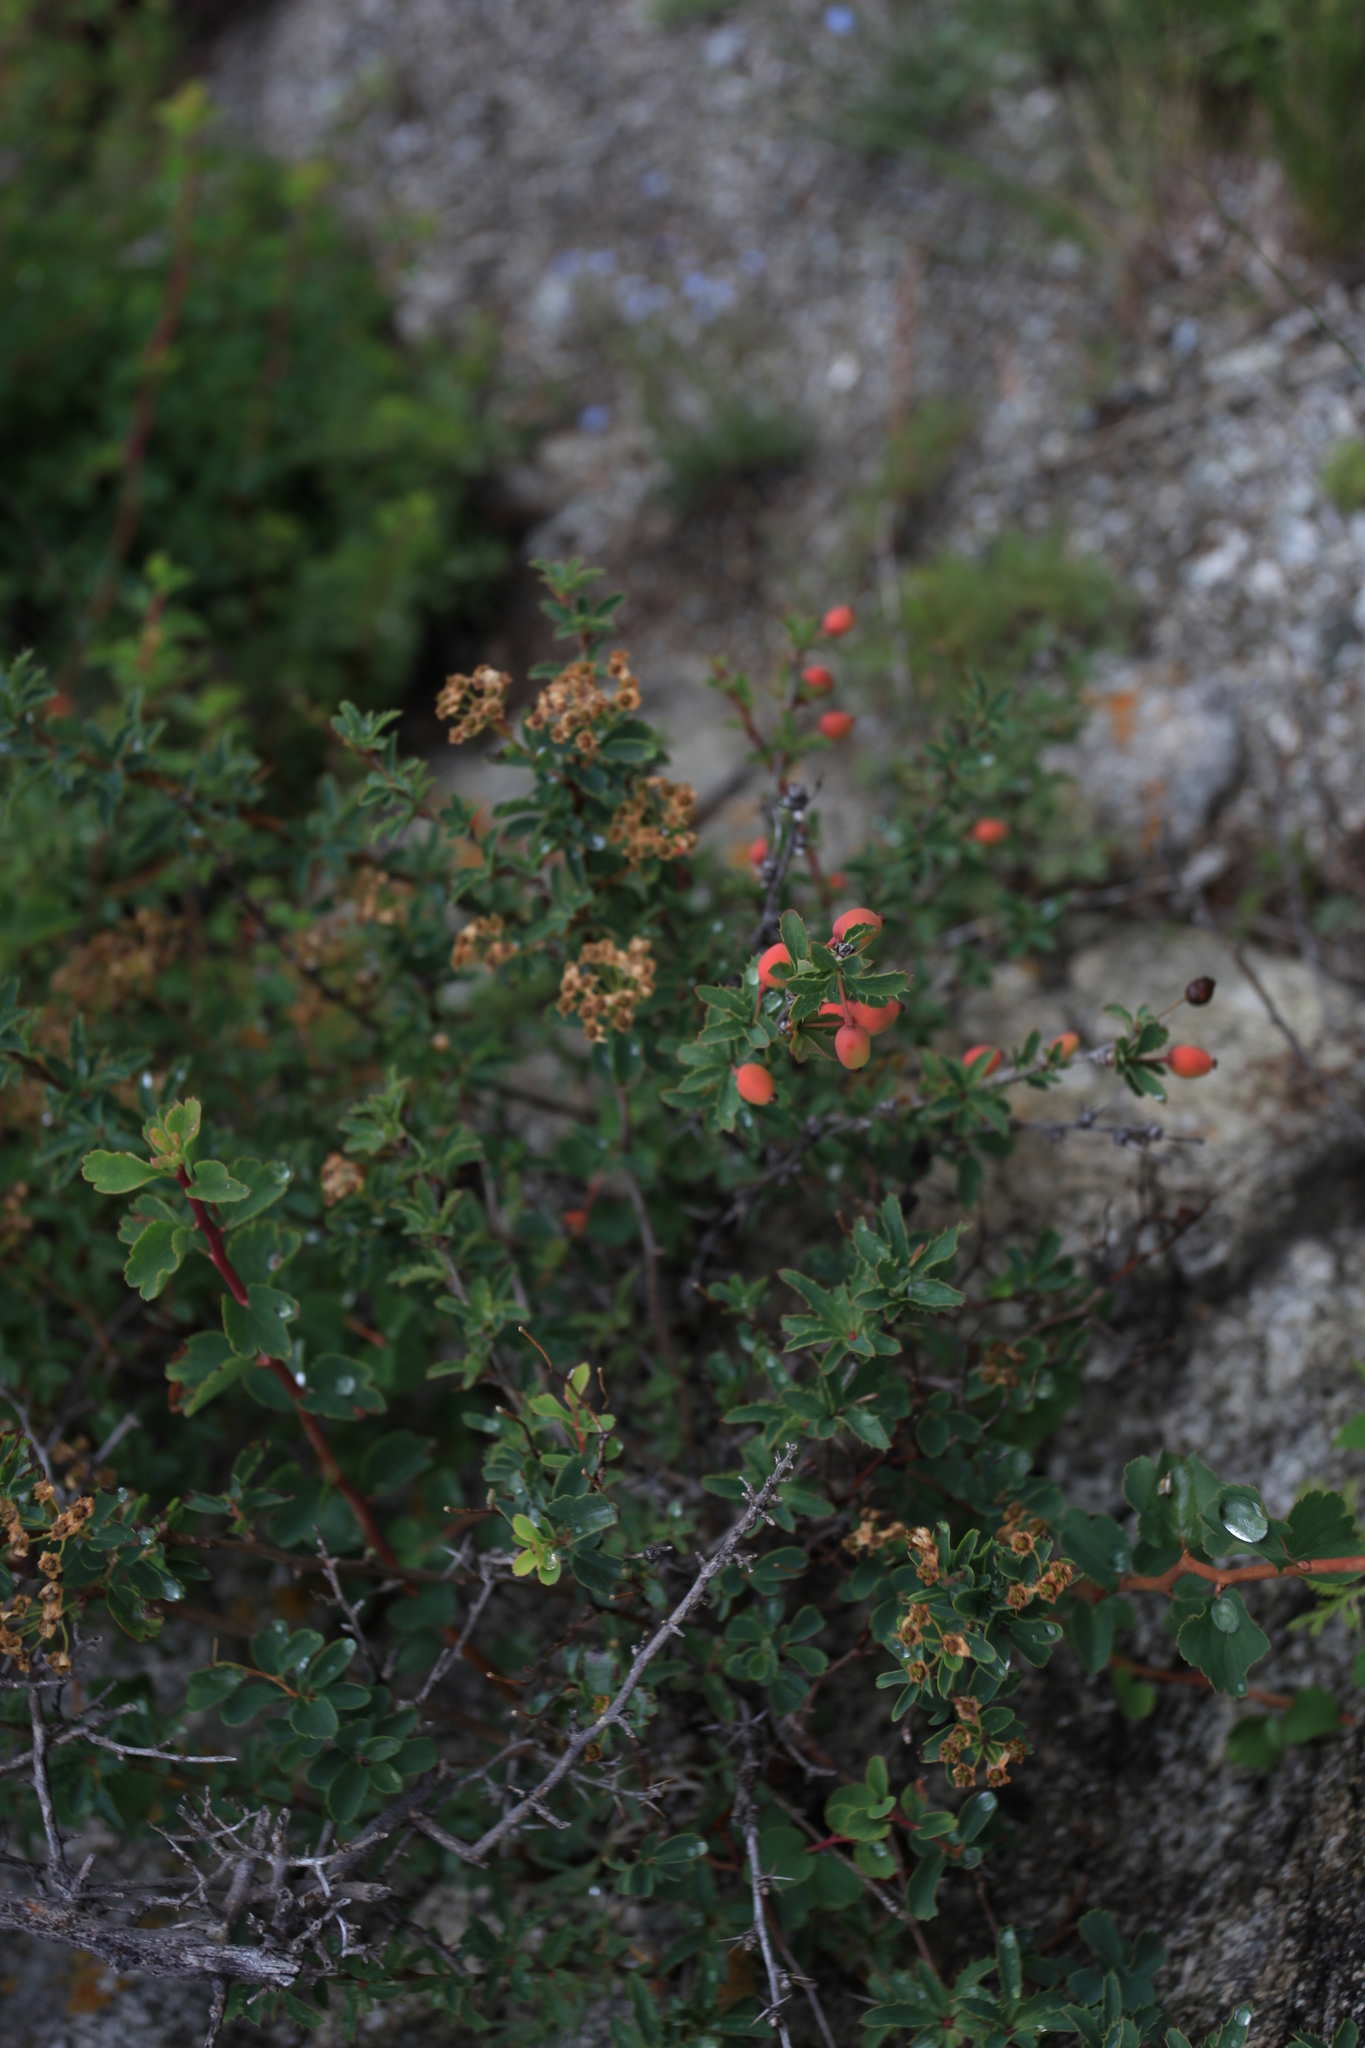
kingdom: Plantae
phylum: Tracheophyta
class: Magnoliopsida
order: Ranunculales
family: Berberidaceae
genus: Berberis
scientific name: Berberis sibirica
